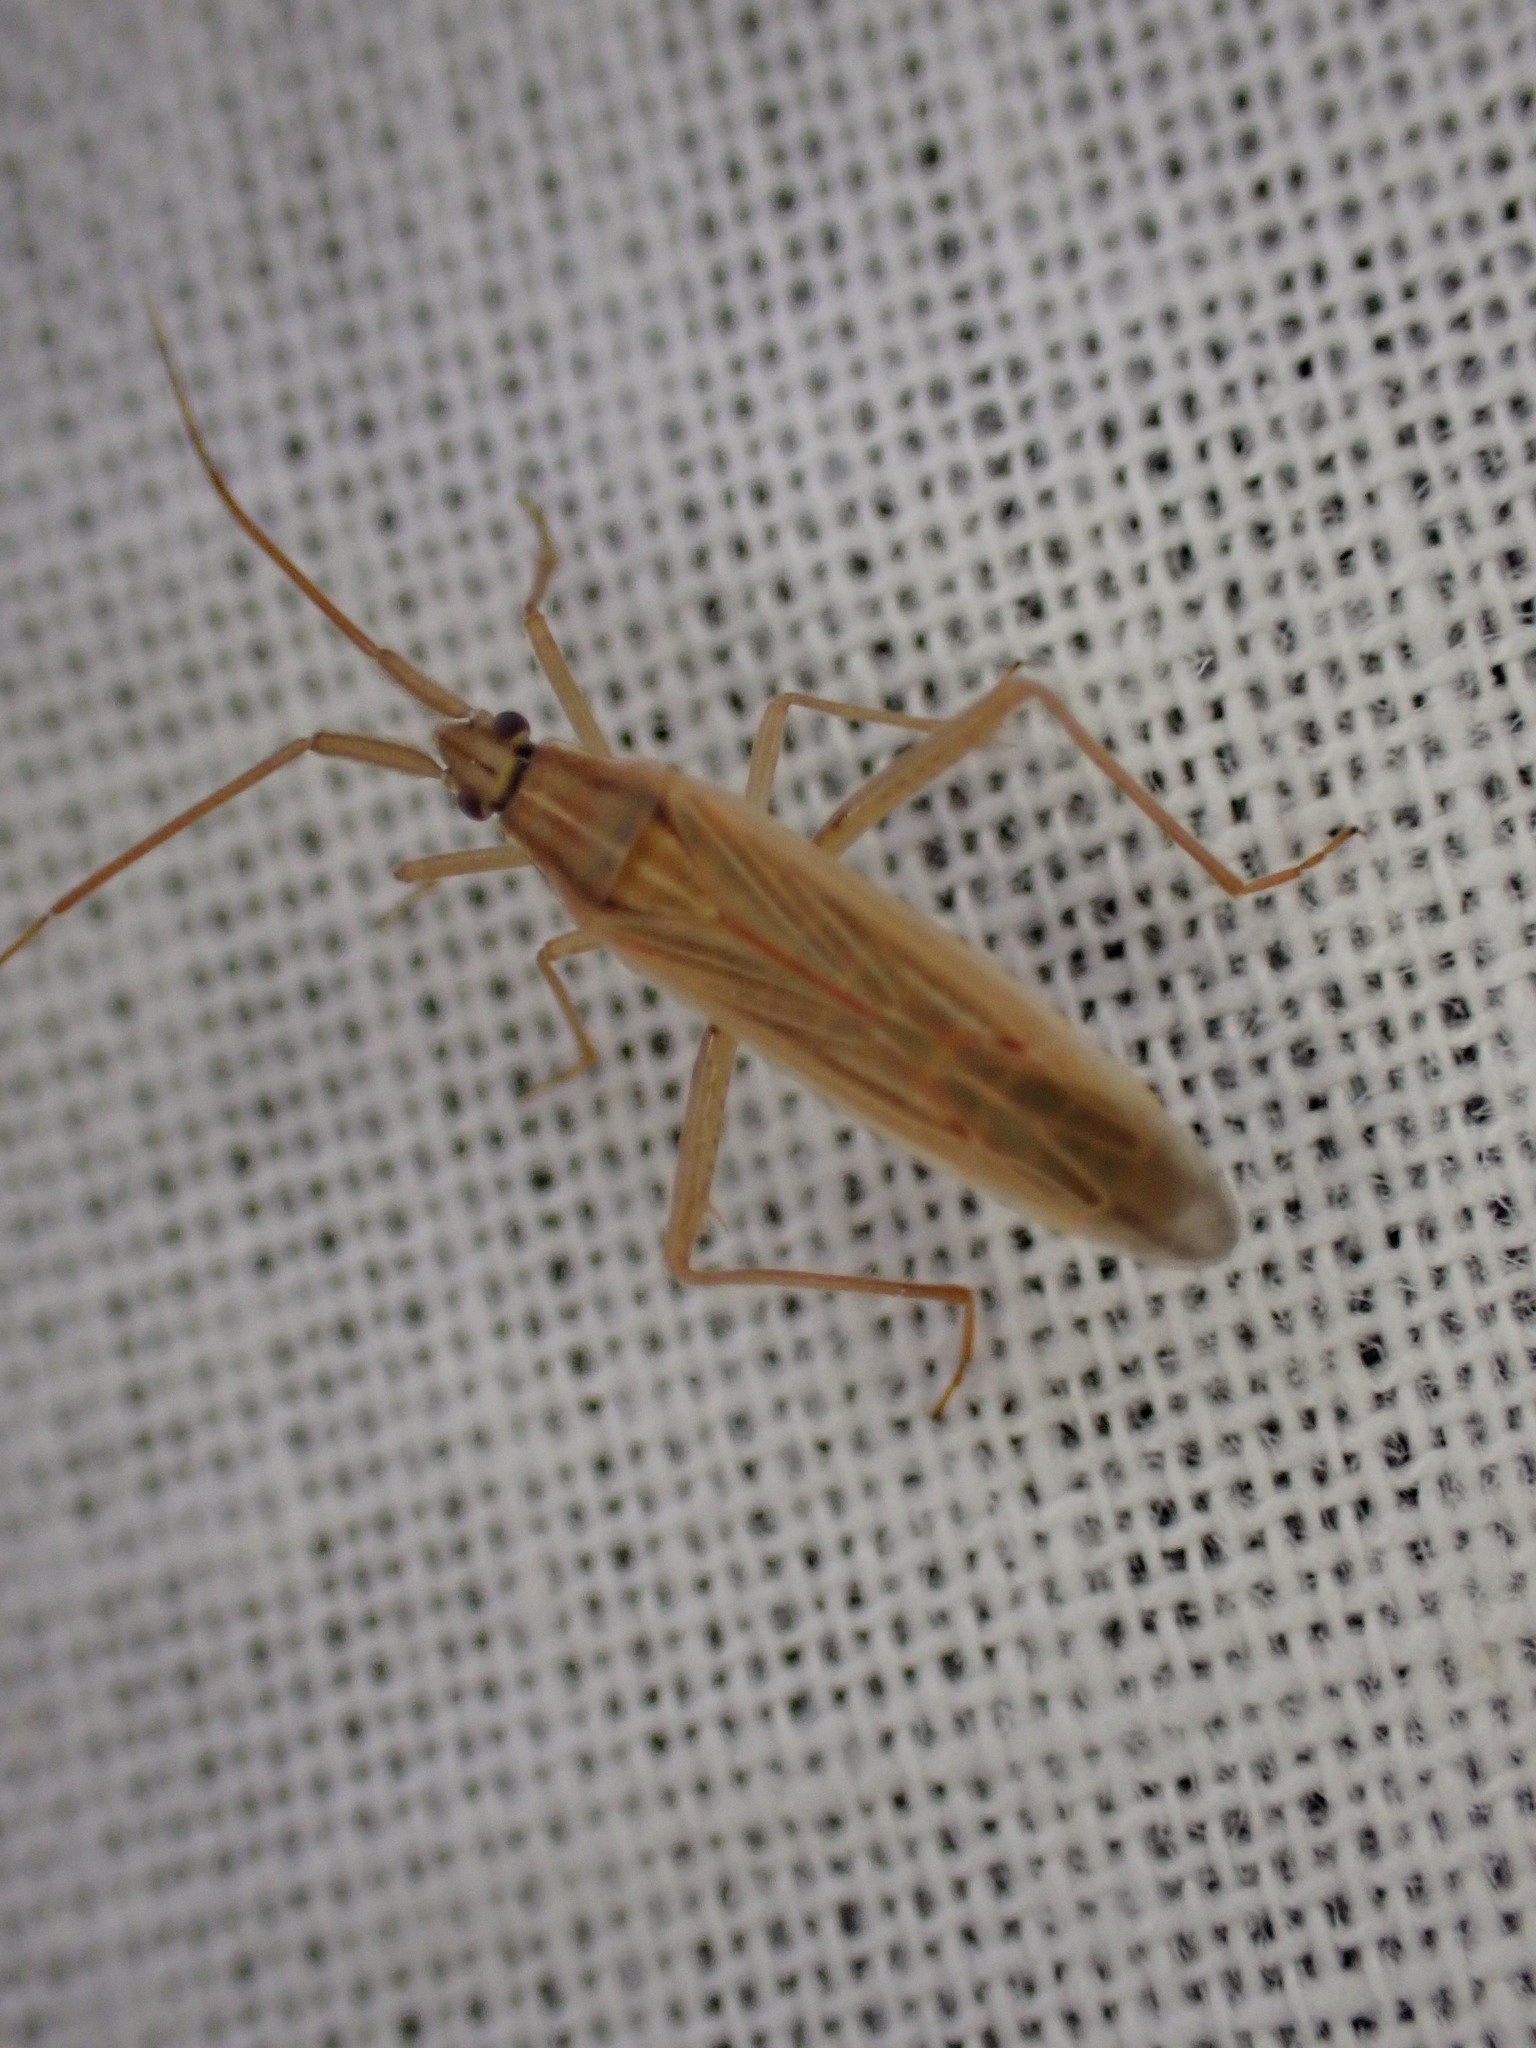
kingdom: Animalia
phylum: Arthropoda
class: Insecta
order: Hemiptera
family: Miridae
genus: Stenodema
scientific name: Stenodema calcarata
